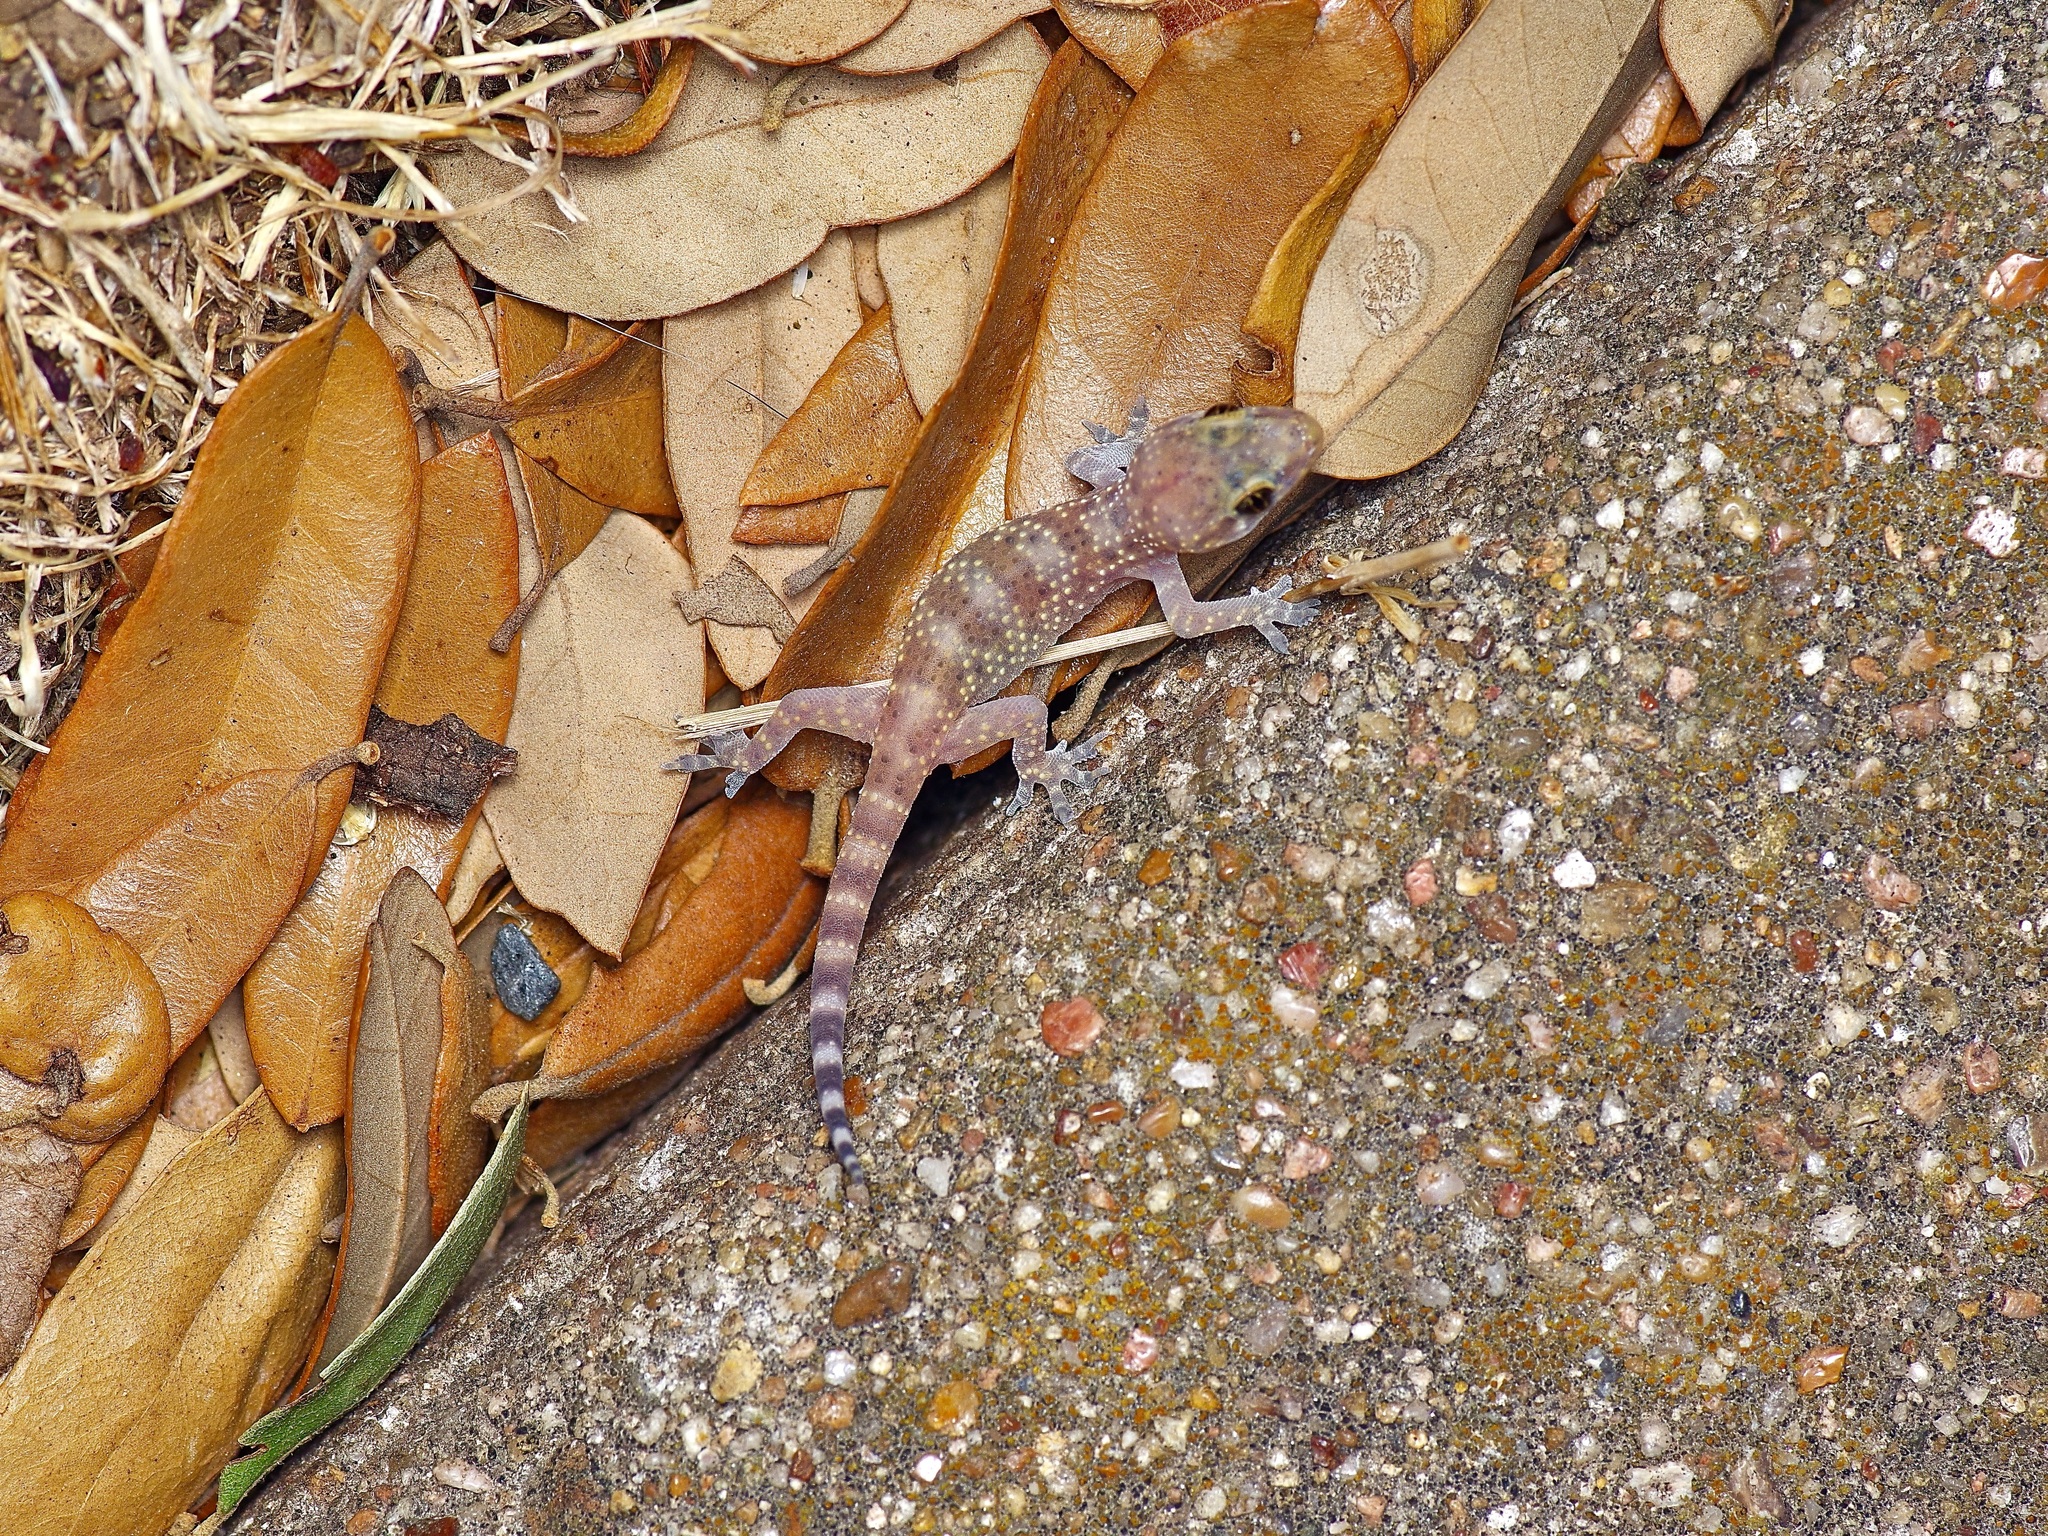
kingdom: Animalia
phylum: Chordata
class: Squamata
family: Gekkonidae
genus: Hemidactylus
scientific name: Hemidactylus turcicus
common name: Turkish gecko
